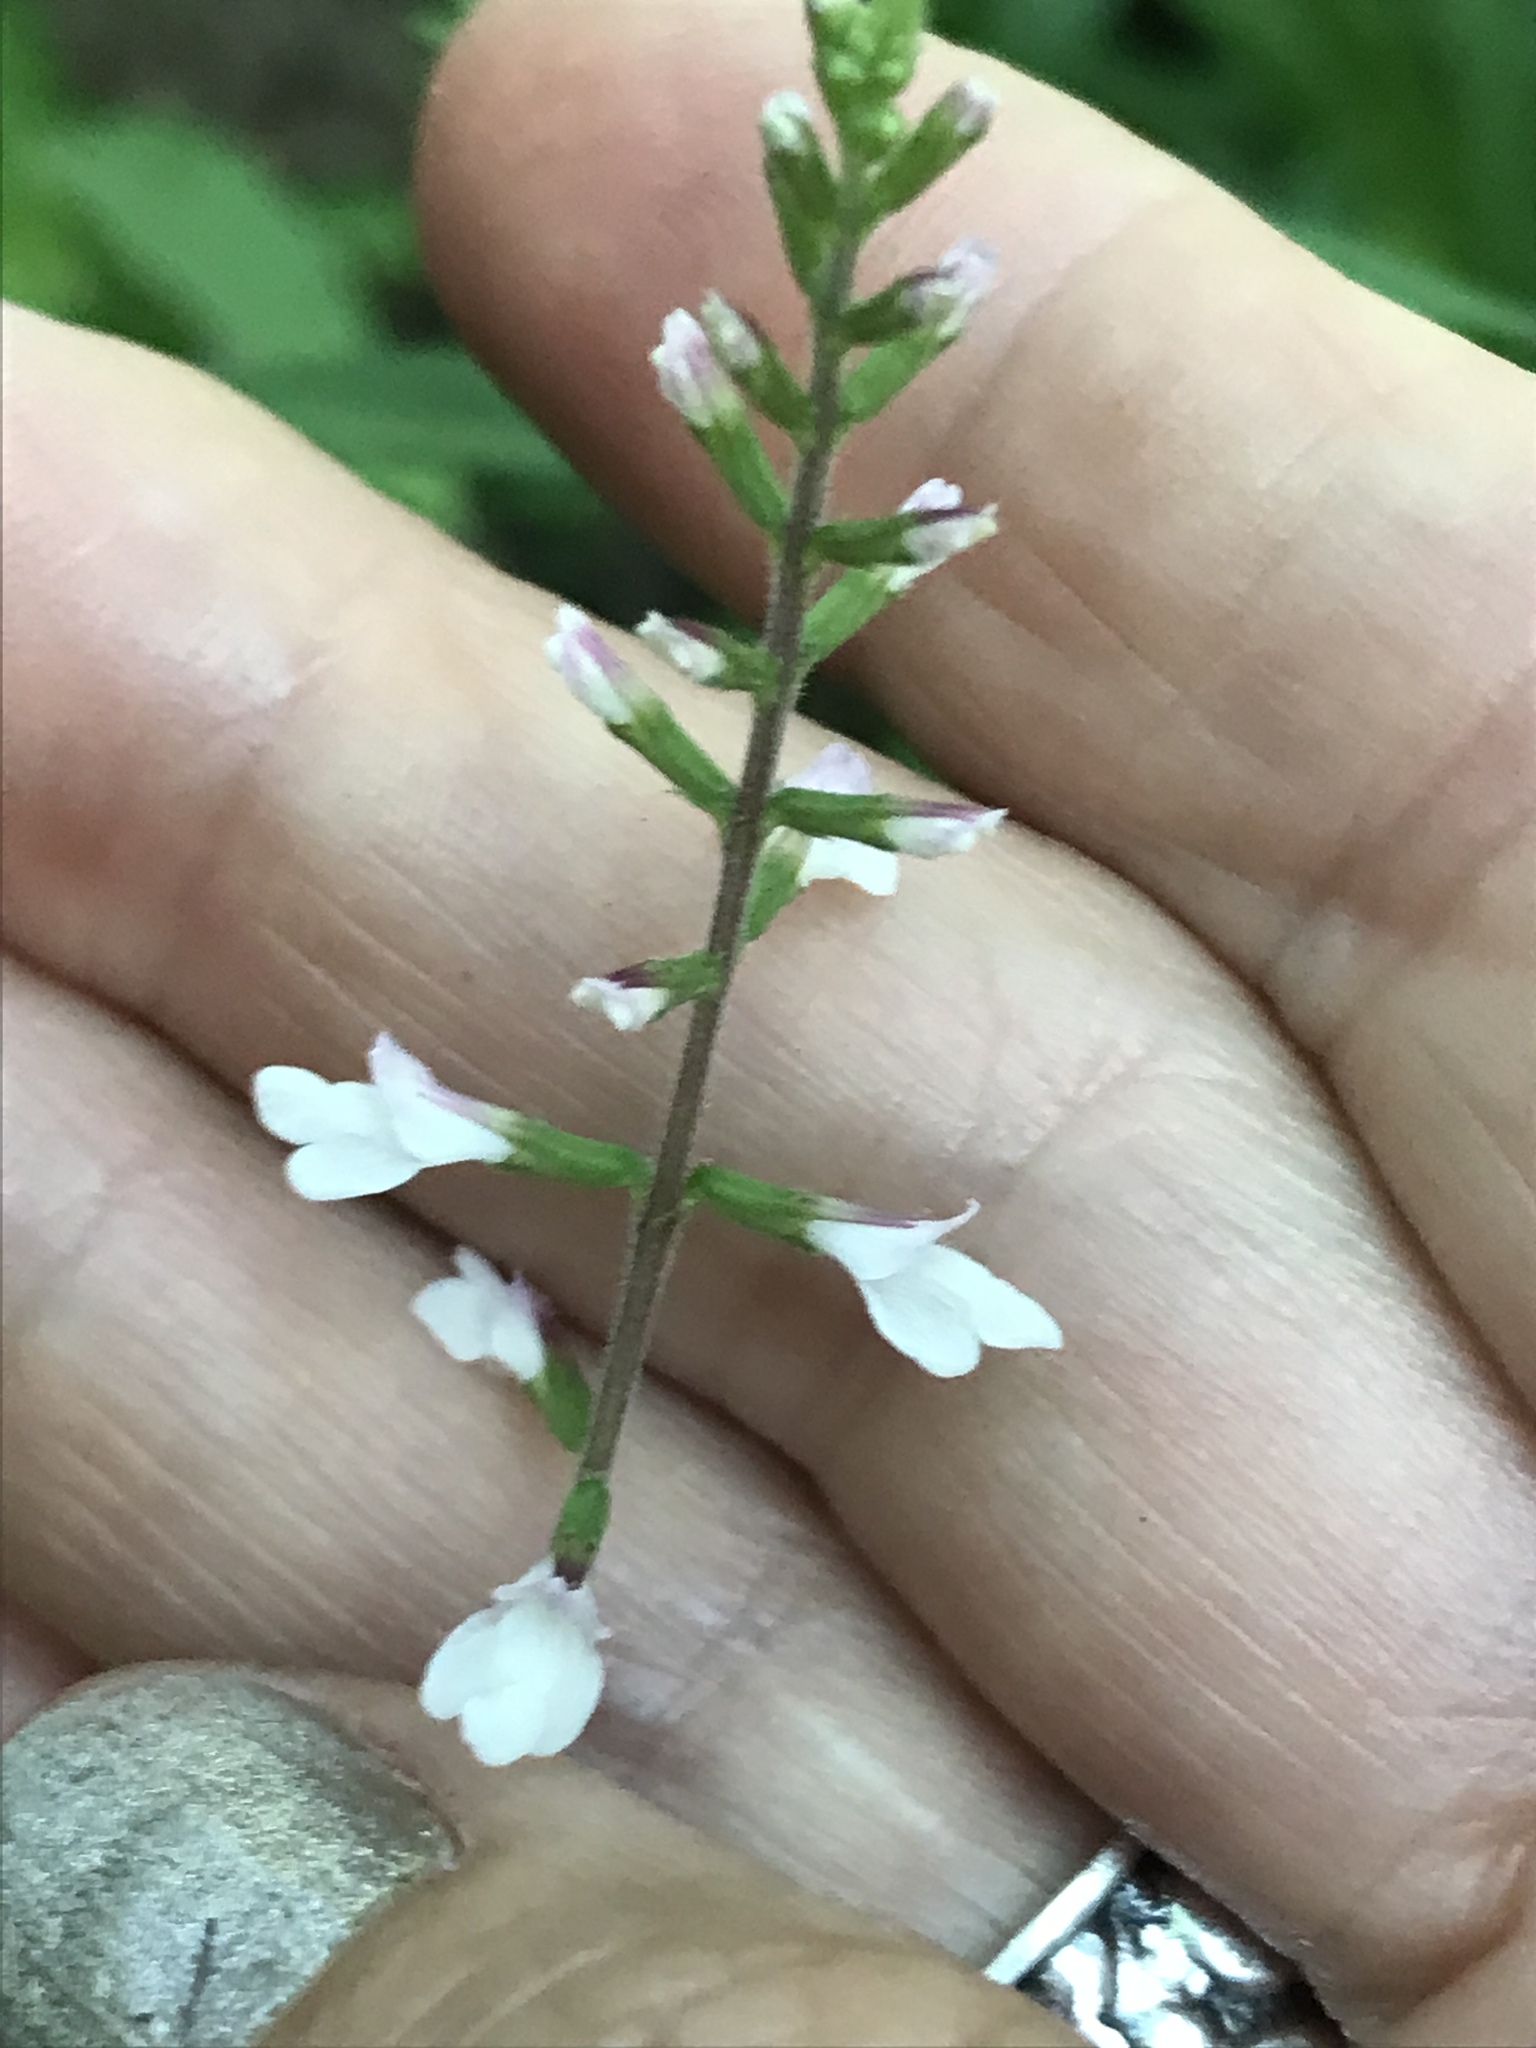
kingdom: Plantae
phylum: Tracheophyta
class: Magnoliopsida
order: Lamiales
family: Phrymaceae
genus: Phryma
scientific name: Phryma leptostachya
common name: American lopseed
